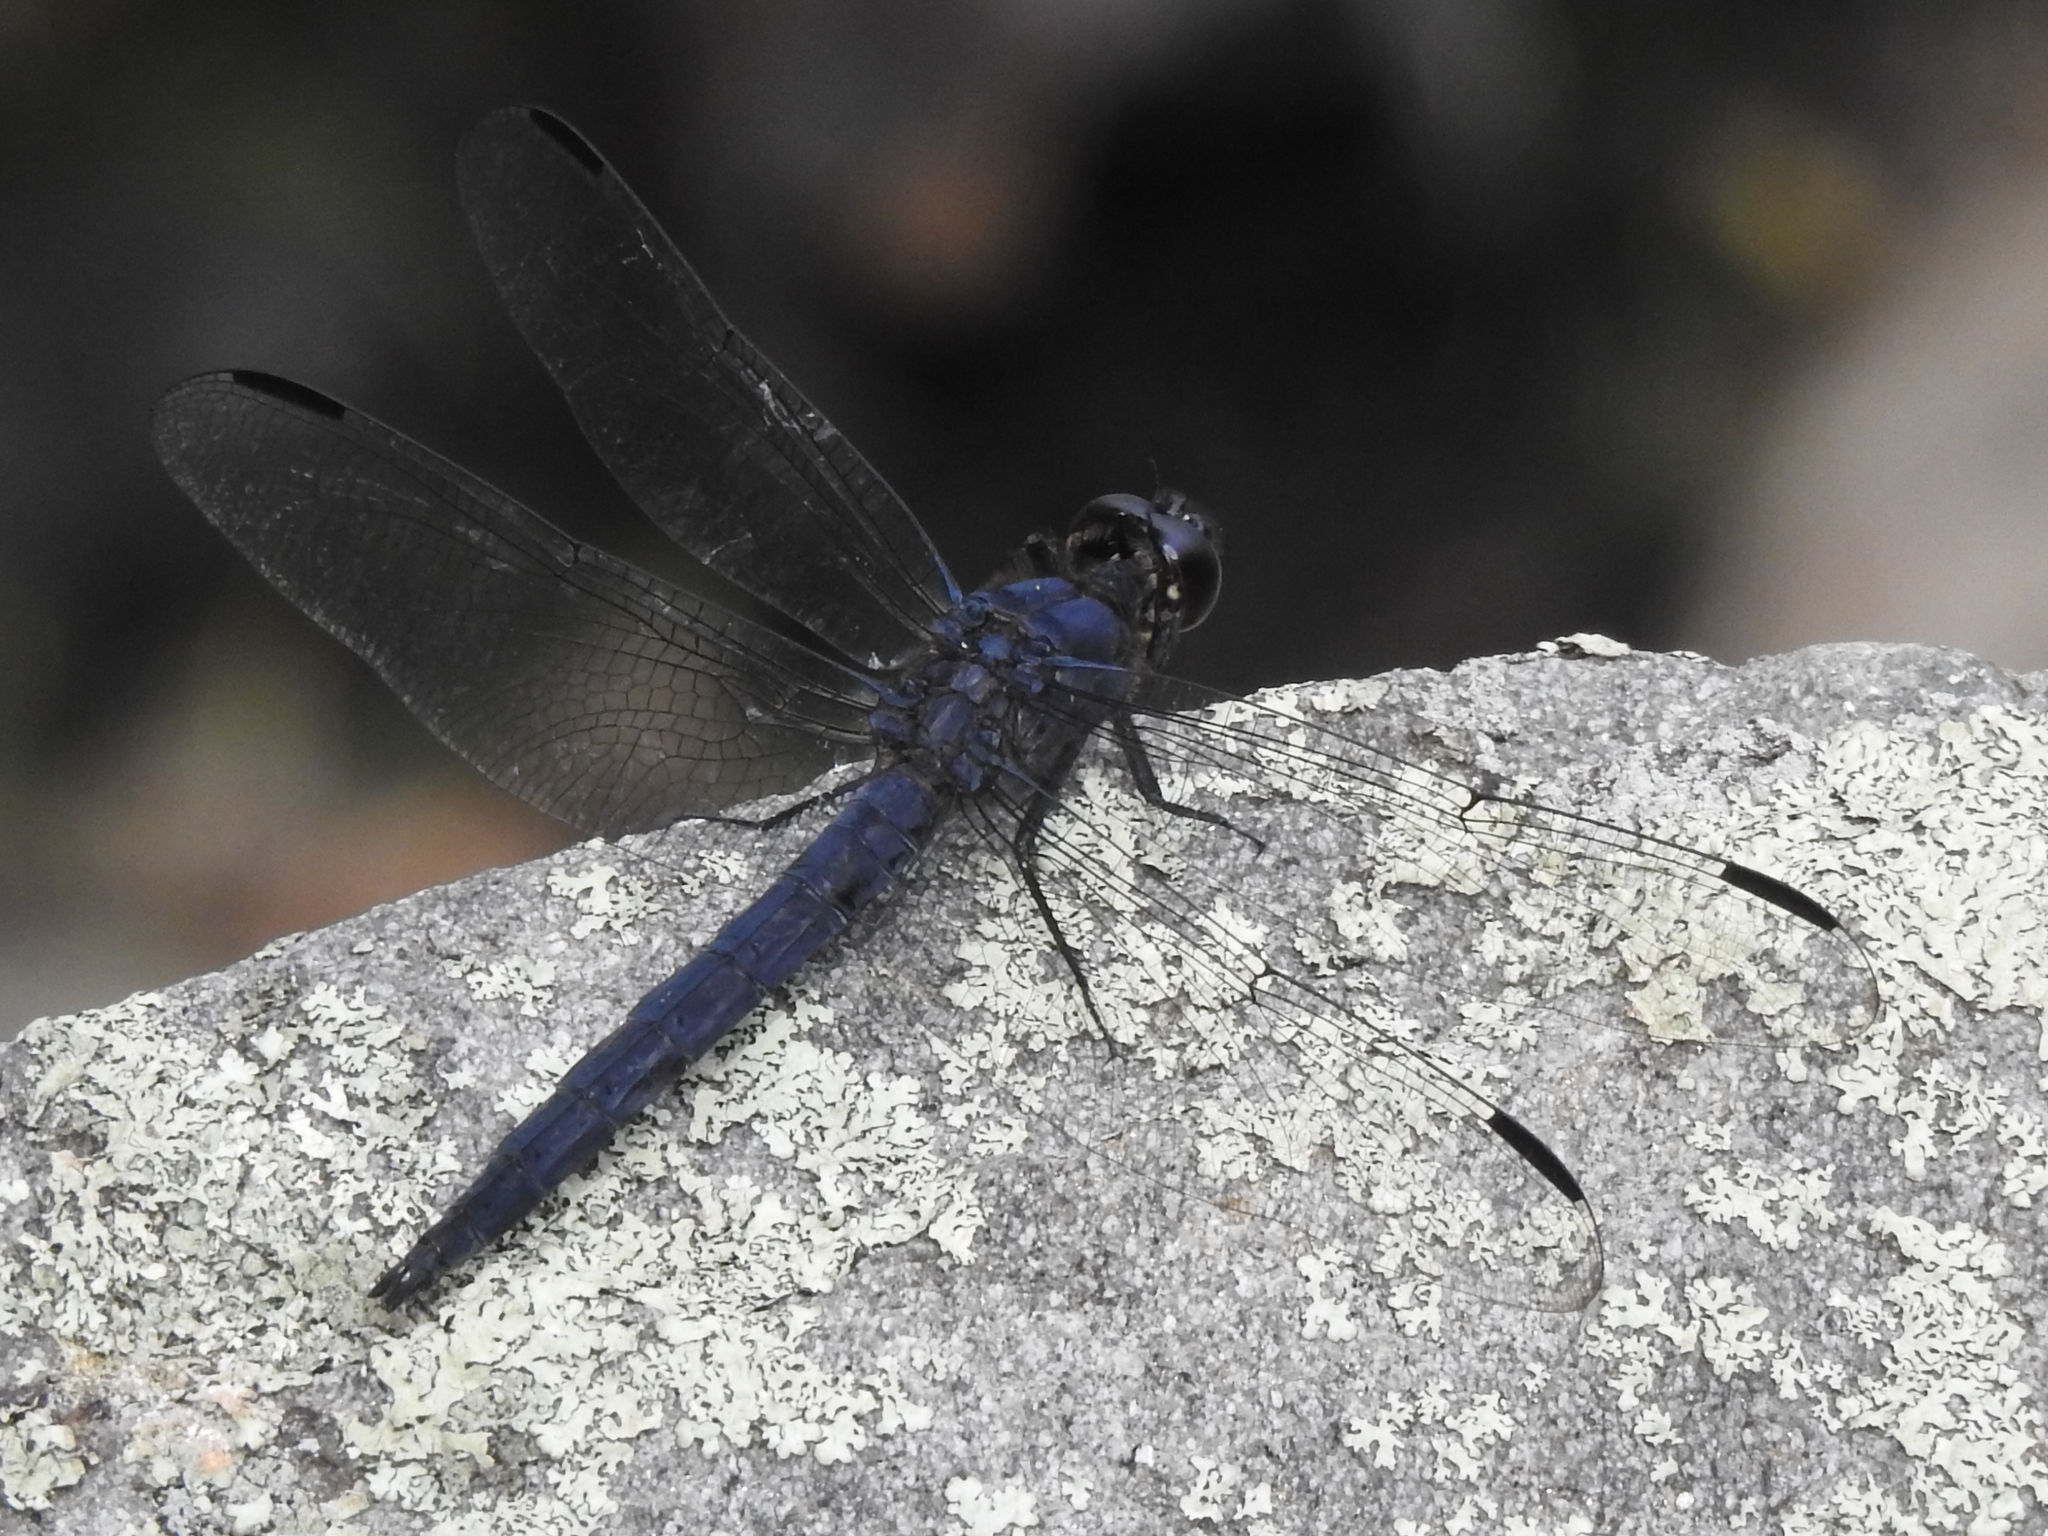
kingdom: Animalia
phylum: Arthropoda
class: Insecta
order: Odonata
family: Libellulidae
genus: Libellula
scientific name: Libellula incesta
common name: Slaty skimmer
